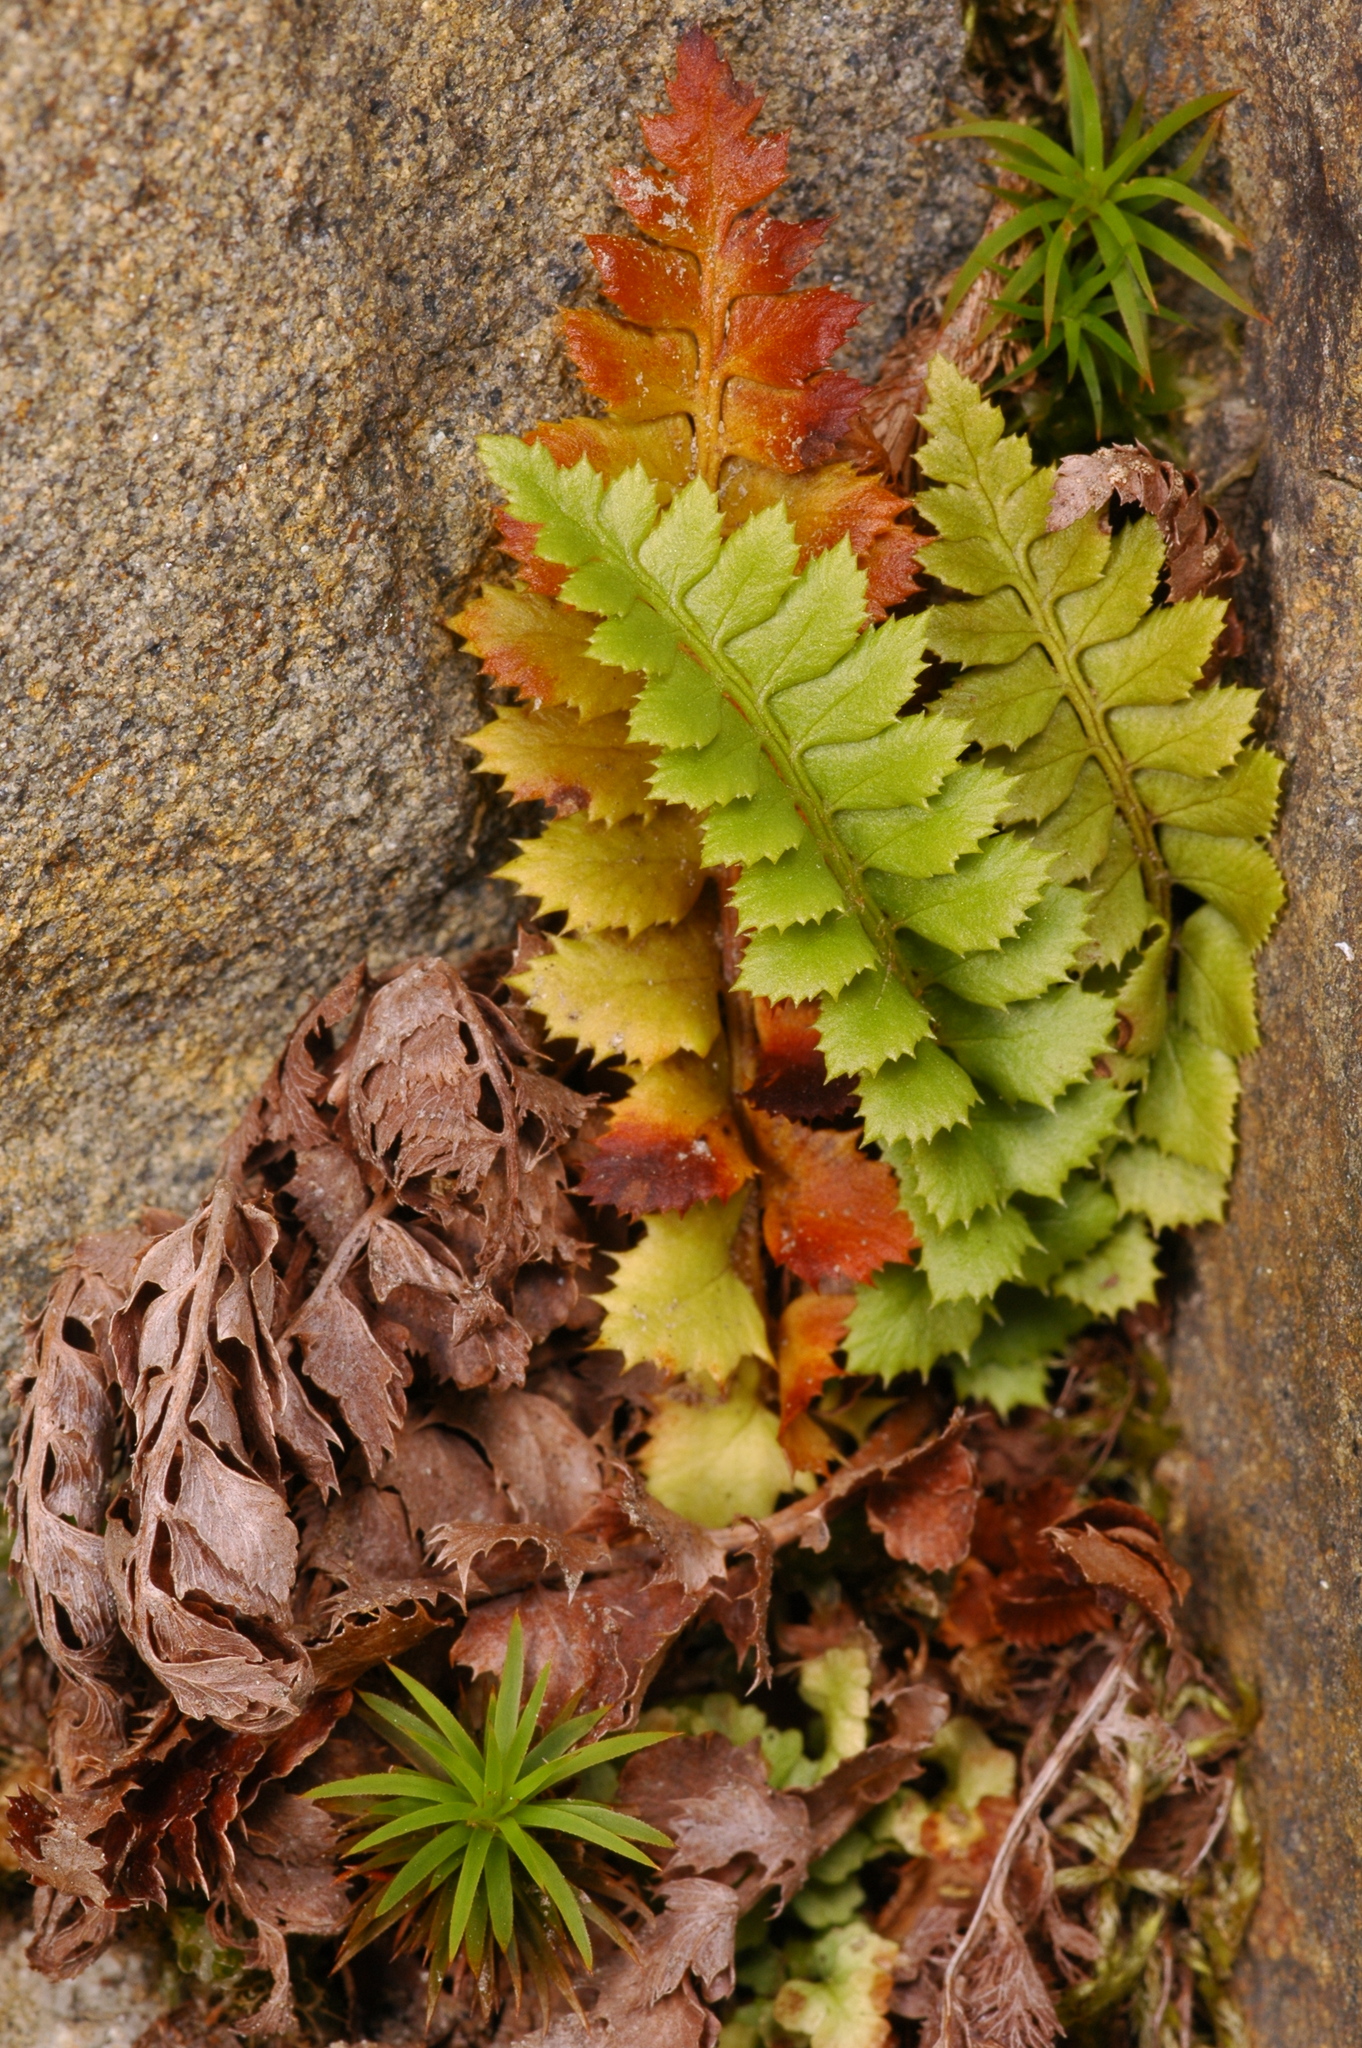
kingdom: Plantae
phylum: Tracheophyta
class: Polypodiopsida
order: Polypodiales
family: Dryopteridaceae
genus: Polystichum
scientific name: Polystichum lonchitis
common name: Holly fern
